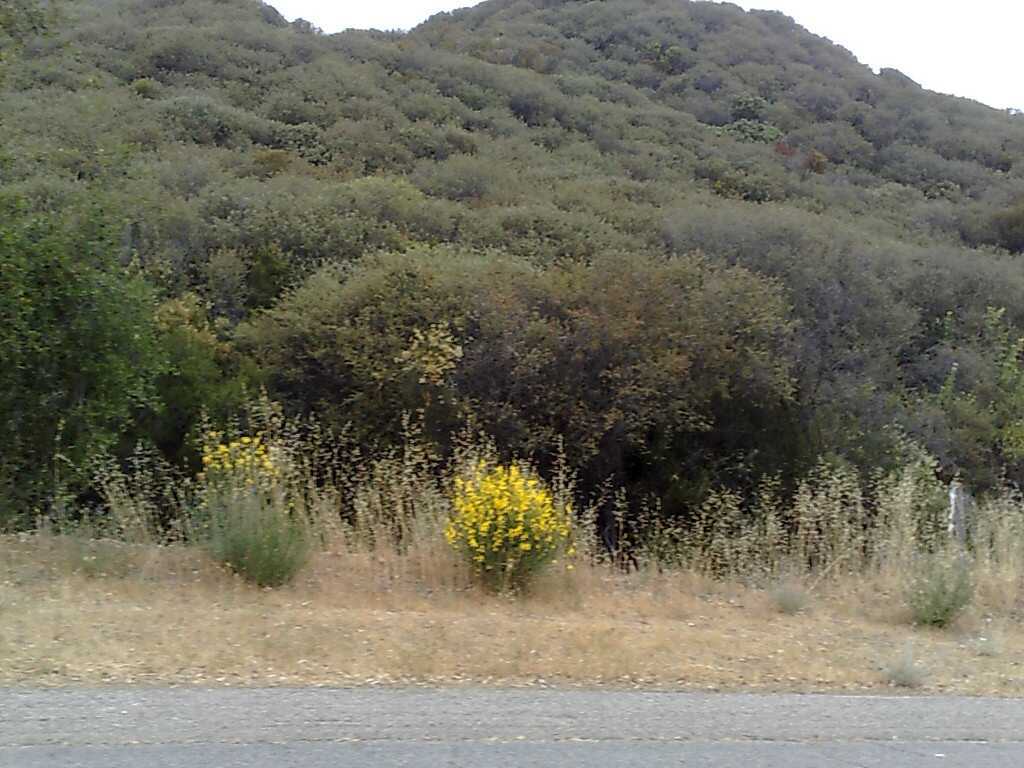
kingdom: Plantae
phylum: Tracheophyta
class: Magnoliopsida
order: Fabales
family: Fabaceae
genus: Spartium
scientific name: Spartium junceum
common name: Spanish broom
